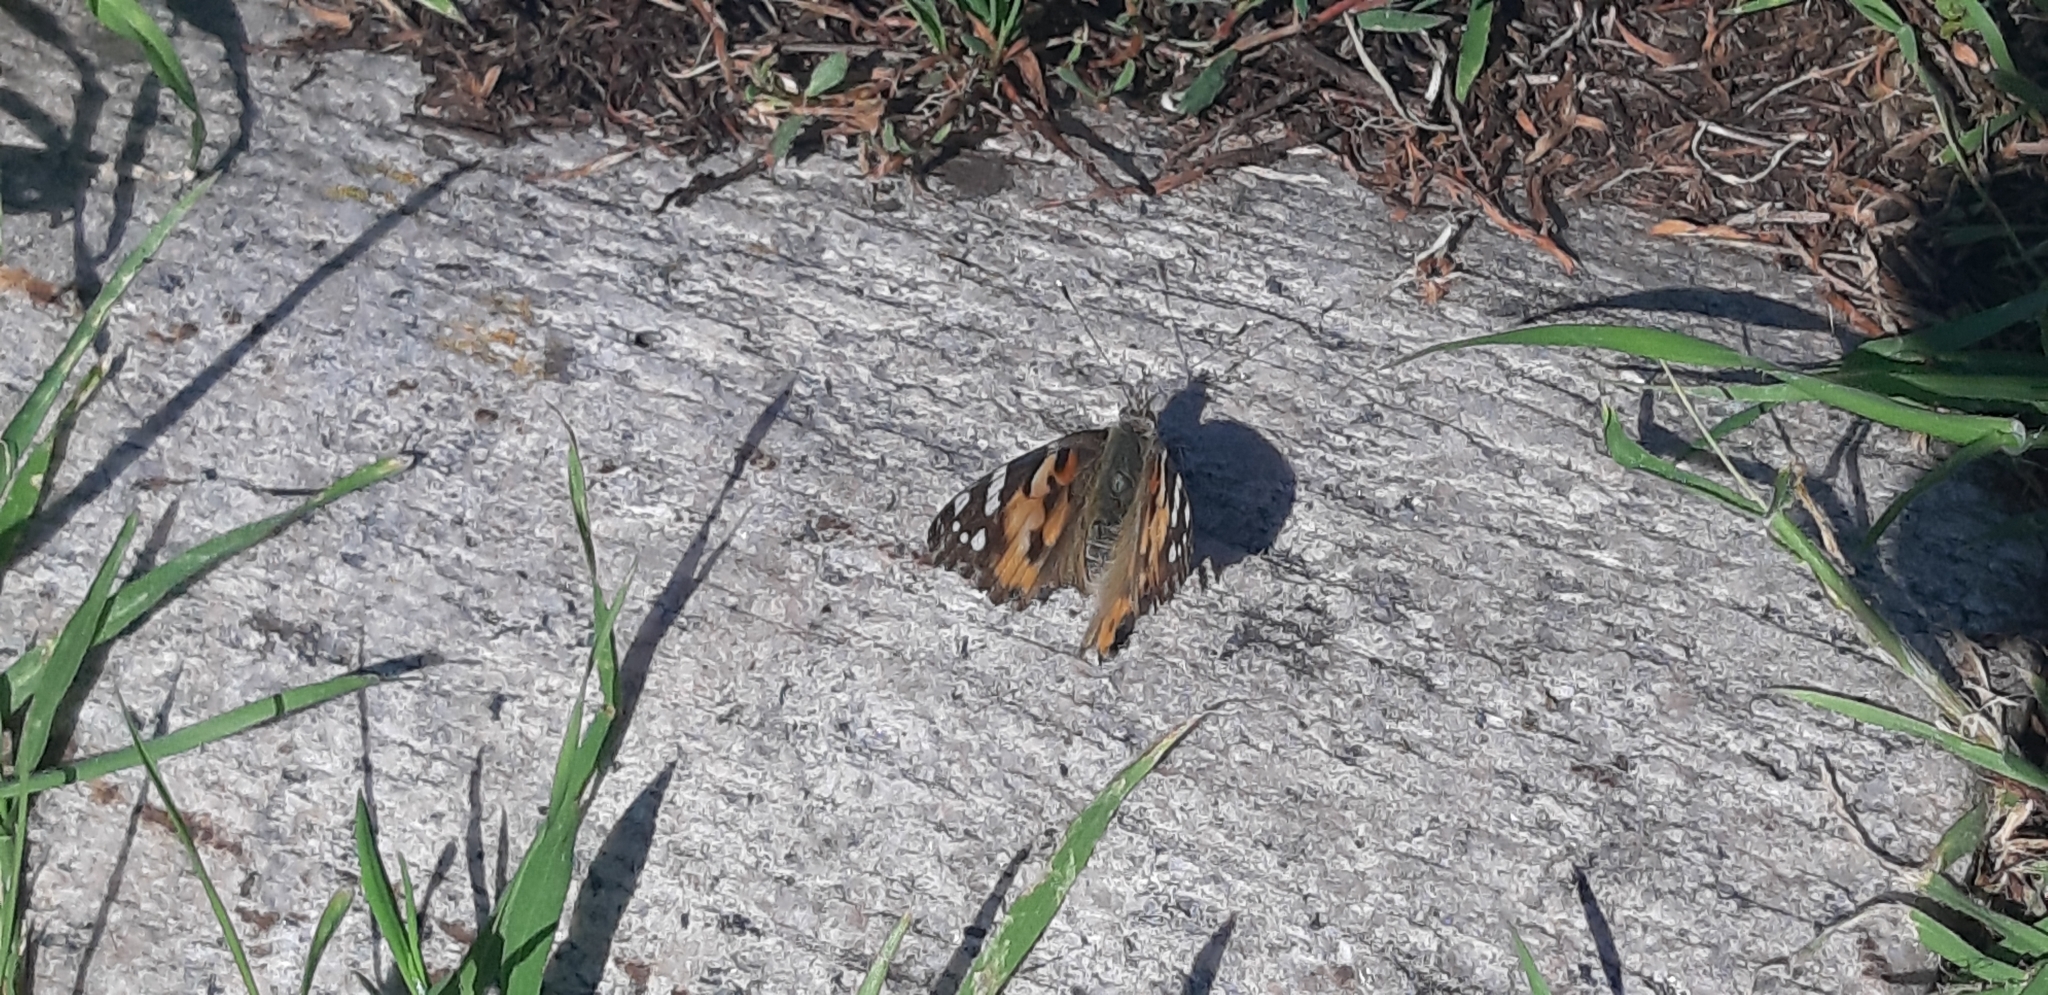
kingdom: Animalia
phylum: Arthropoda
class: Insecta
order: Lepidoptera
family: Nymphalidae
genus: Vanessa
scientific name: Vanessa cardui
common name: Painted lady
